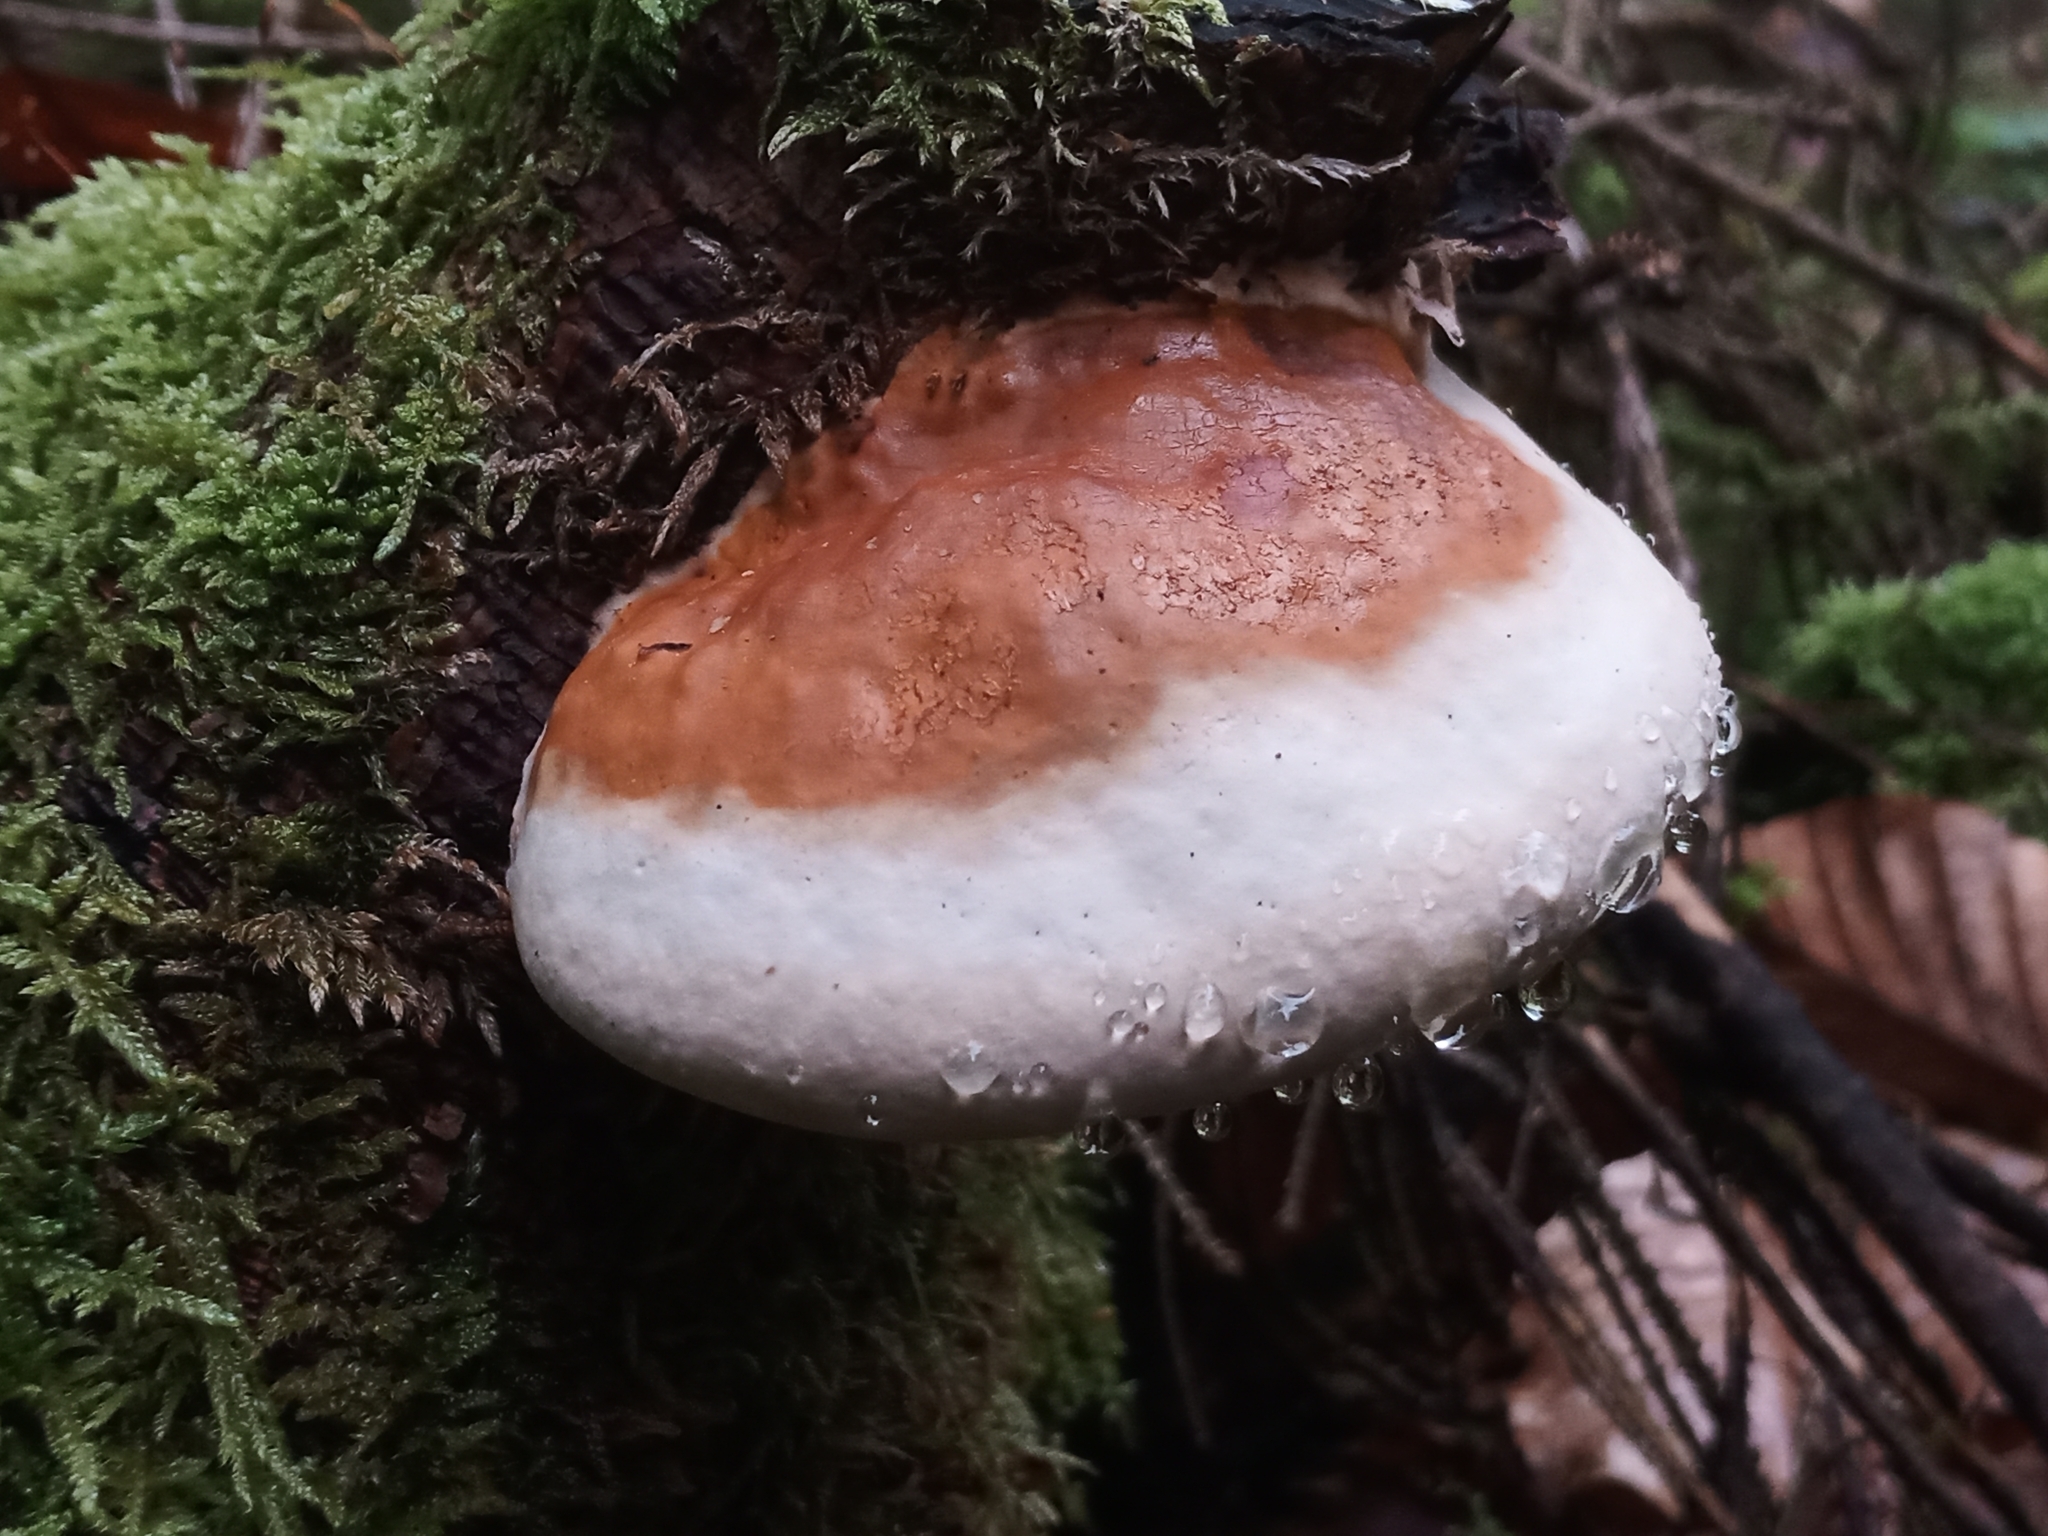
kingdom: Fungi
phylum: Basidiomycota
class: Agaricomycetes
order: Polyporales
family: Fomitopsidaceae
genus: Fomitopsis
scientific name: Fomitopsis pinicola
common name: Red-belted bracket
